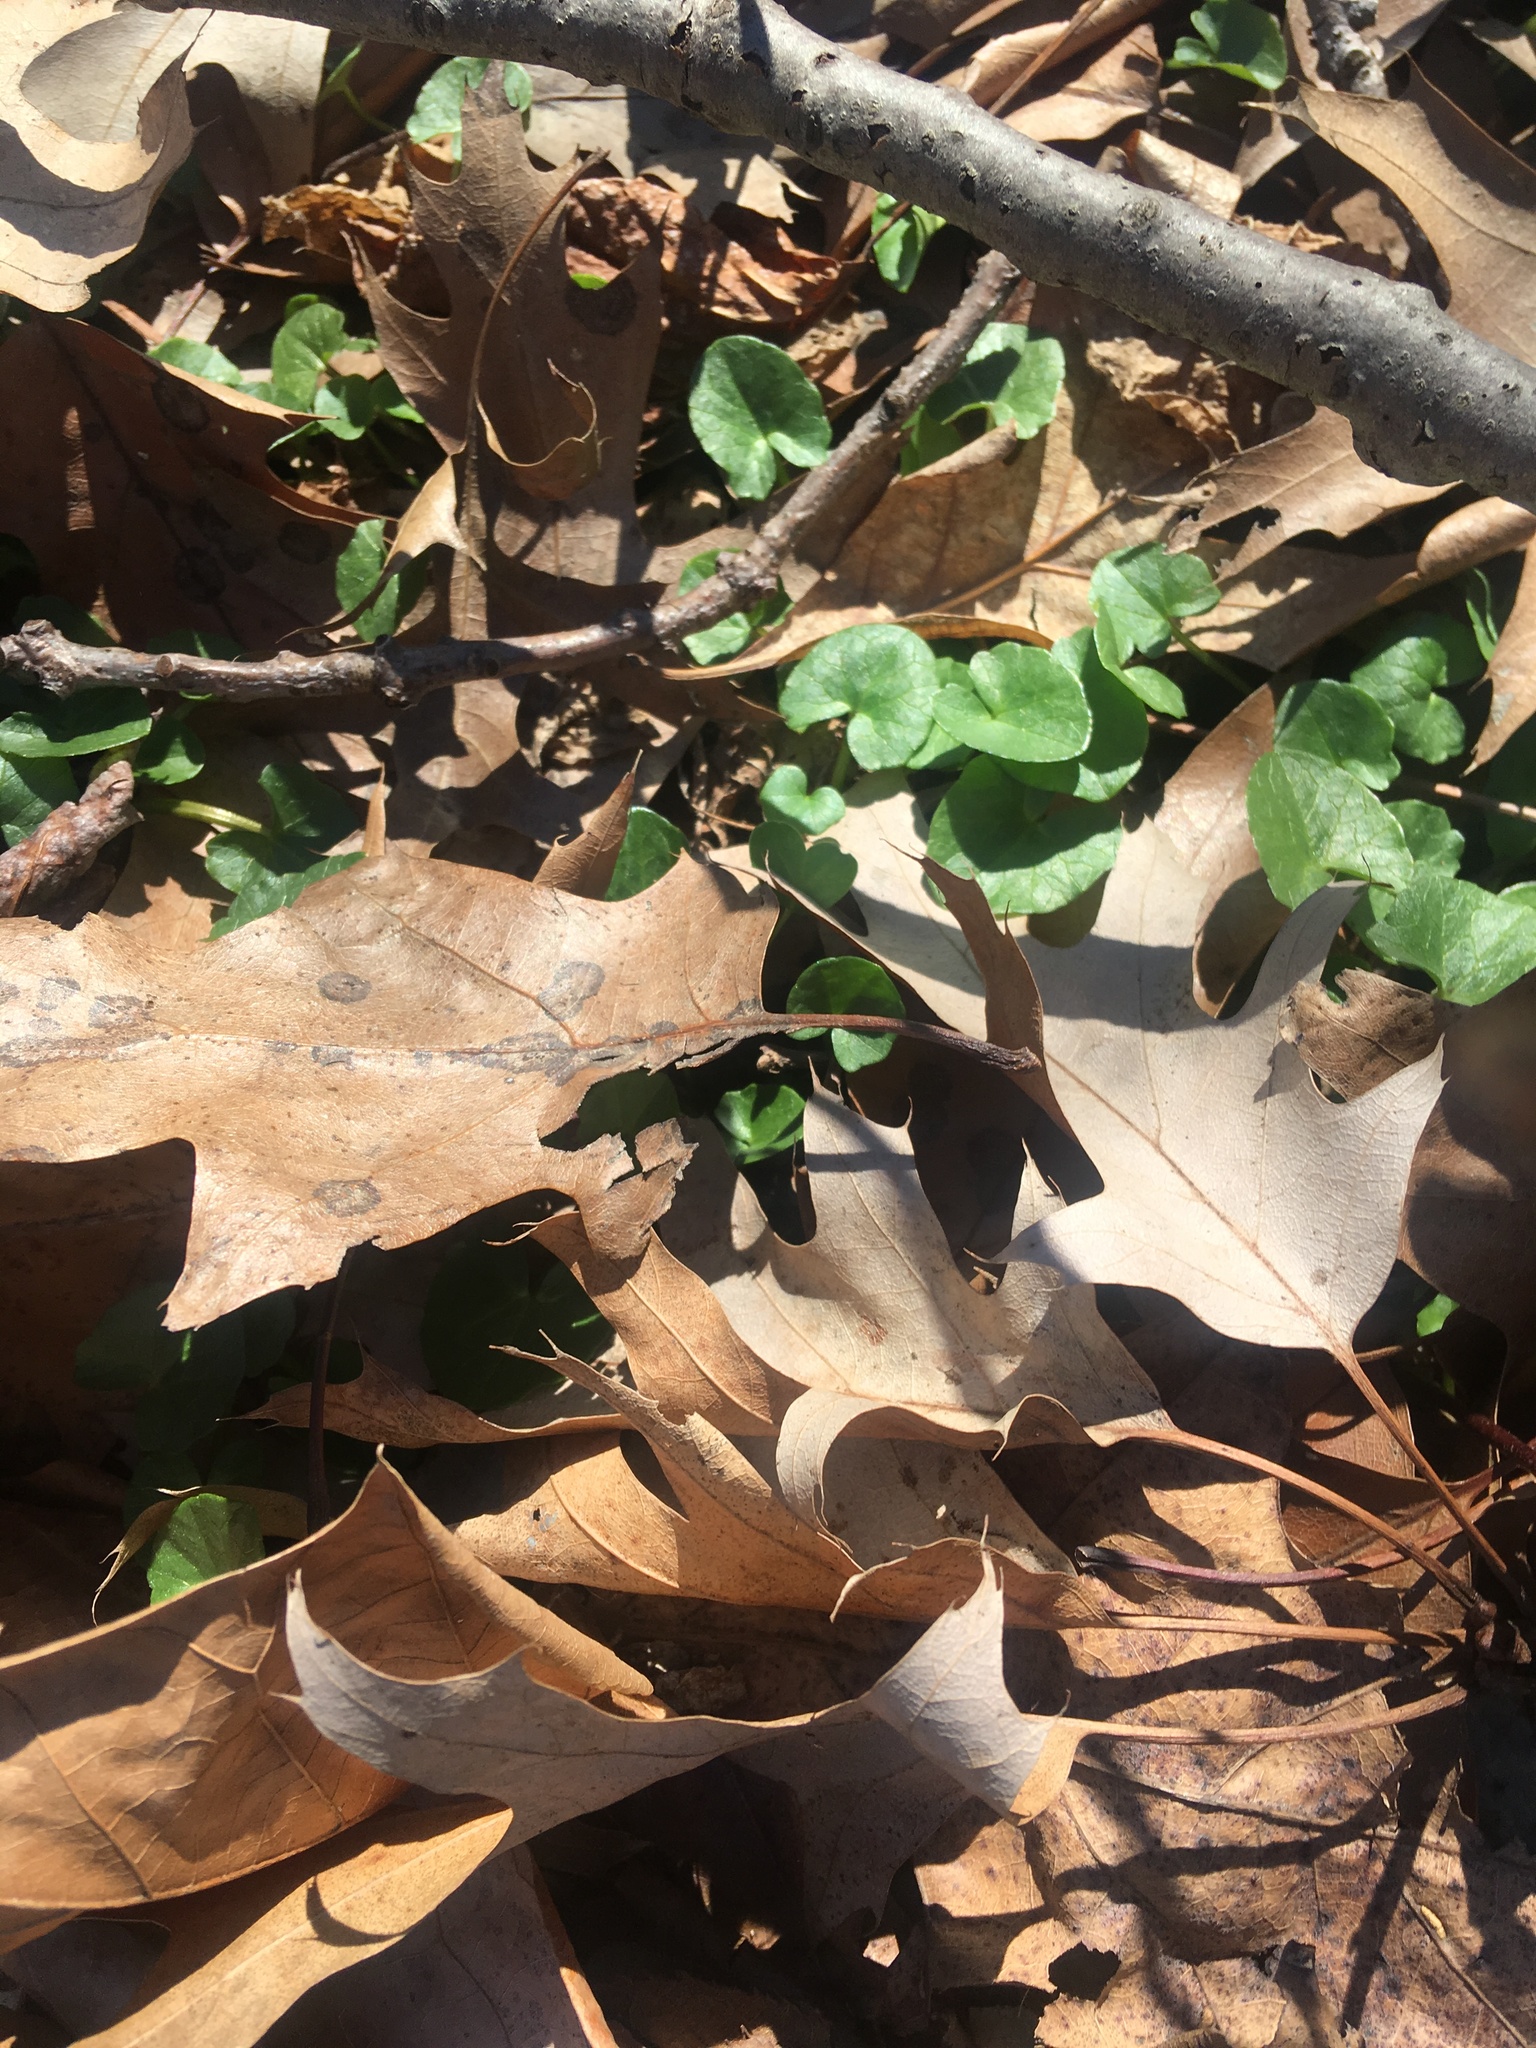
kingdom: Plantae
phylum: Tracheophyta
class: Magnoliopsida
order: Ranunculales
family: Ranunculaceae
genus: Ficaria
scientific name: Ficaria verna
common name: Lesser celandine
